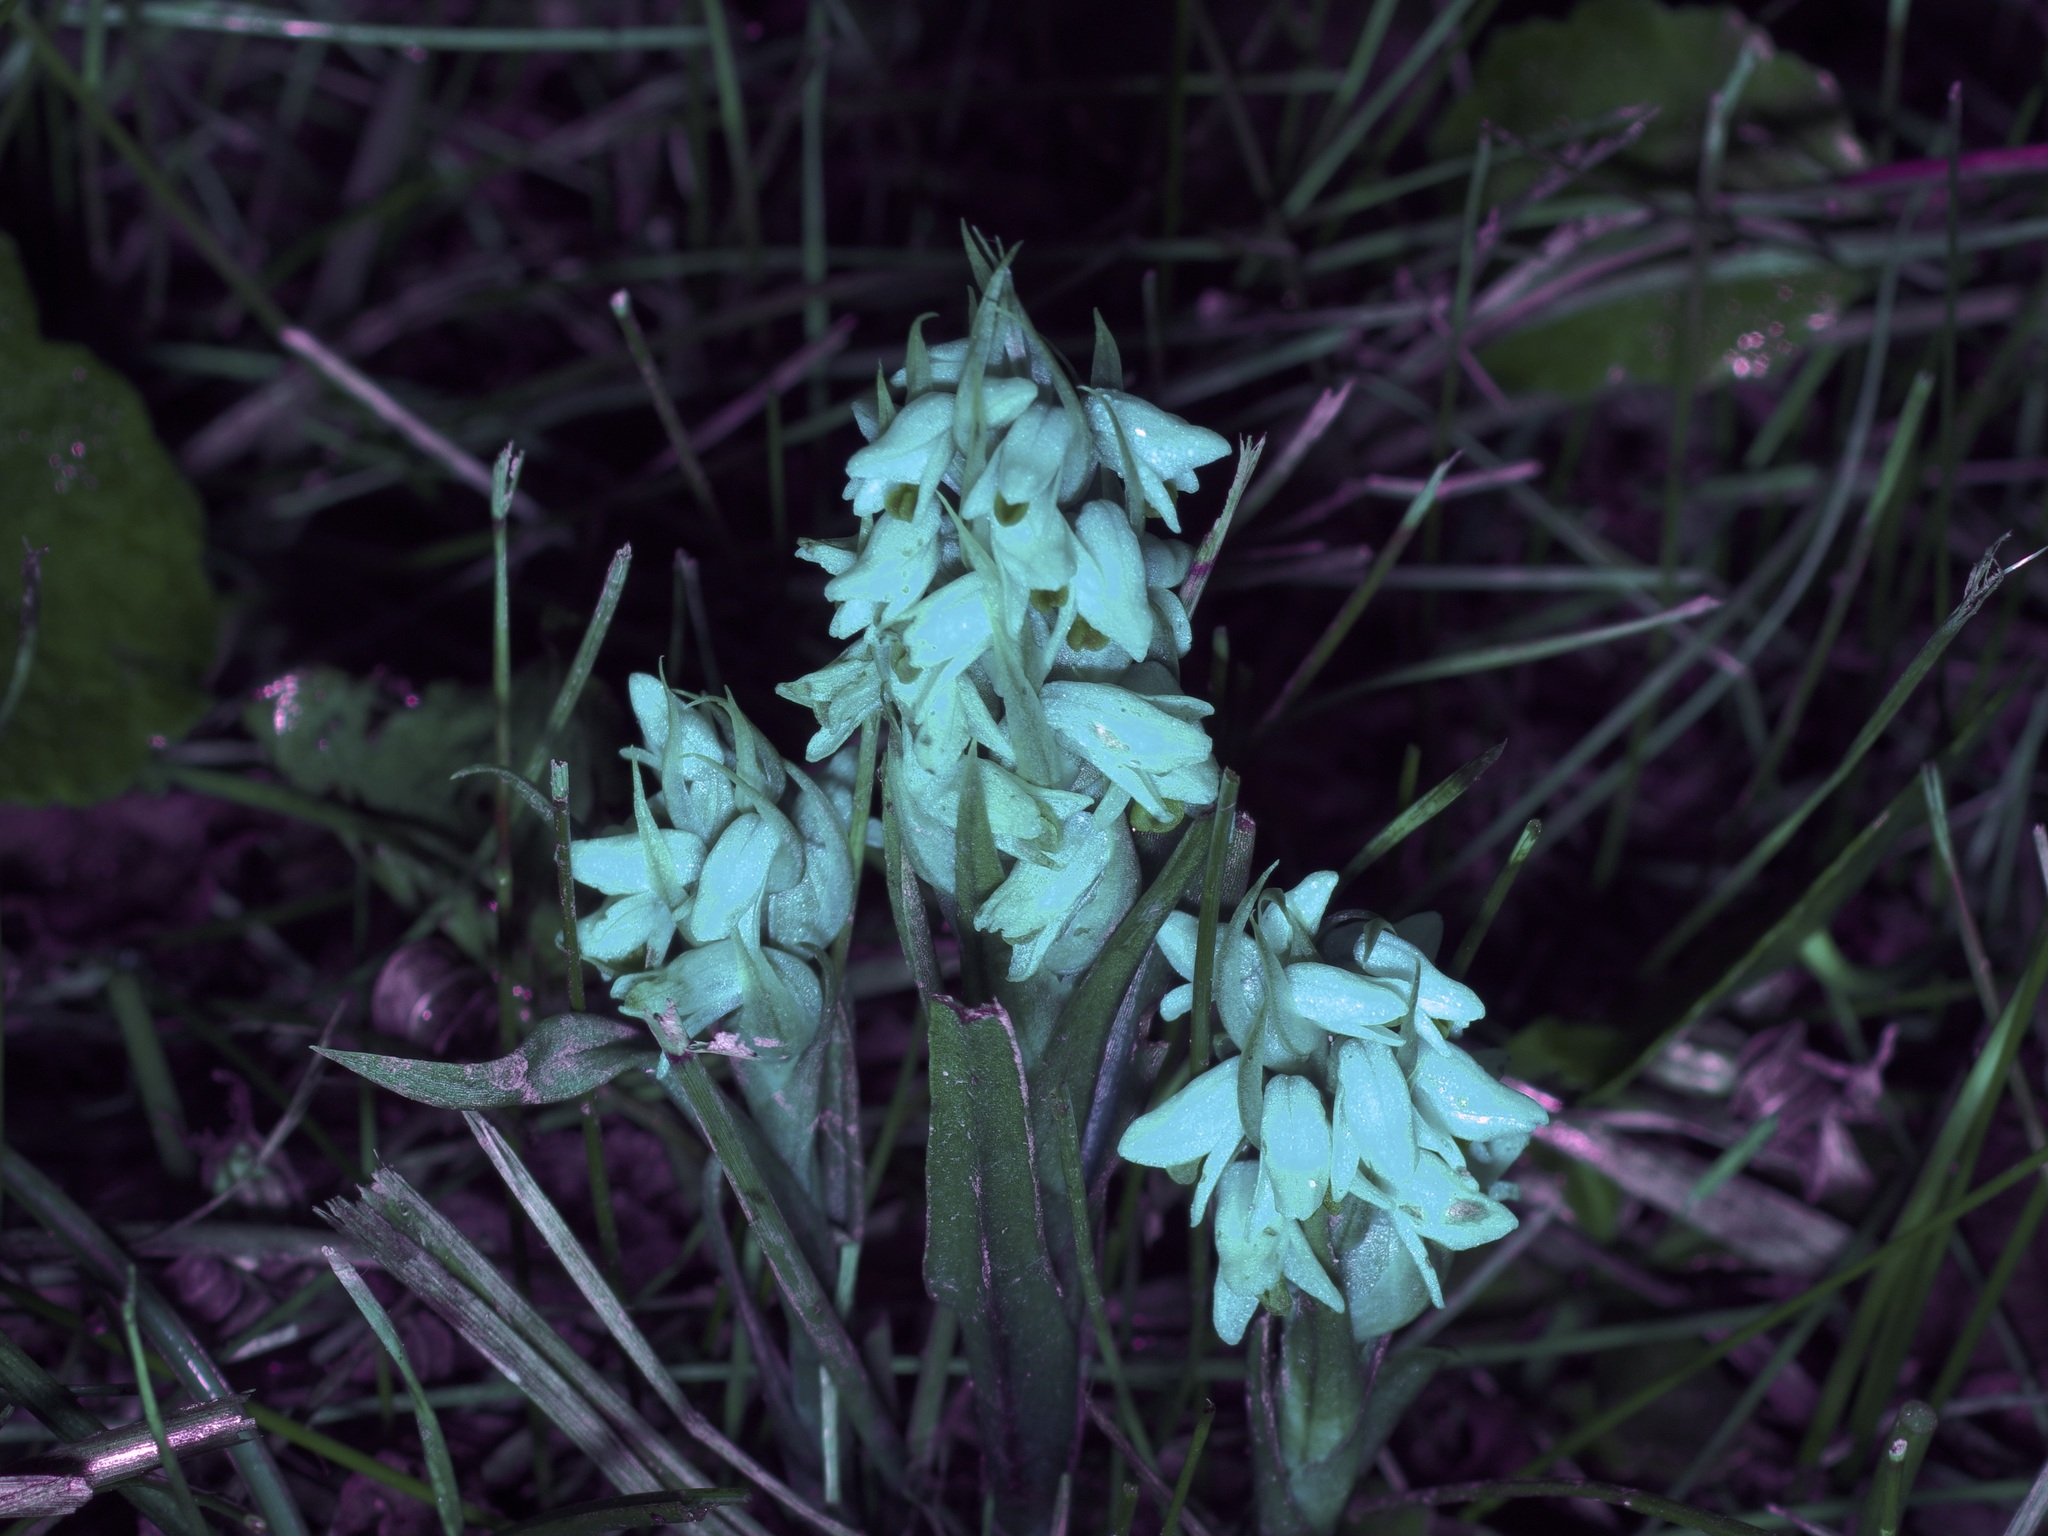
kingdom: Plantae
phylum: Tracheophyta
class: Liliopsida
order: Asparagales
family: Orchidaceae
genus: Zeuxine
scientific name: Zeuxine strateumatica
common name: Soldier's orchid
